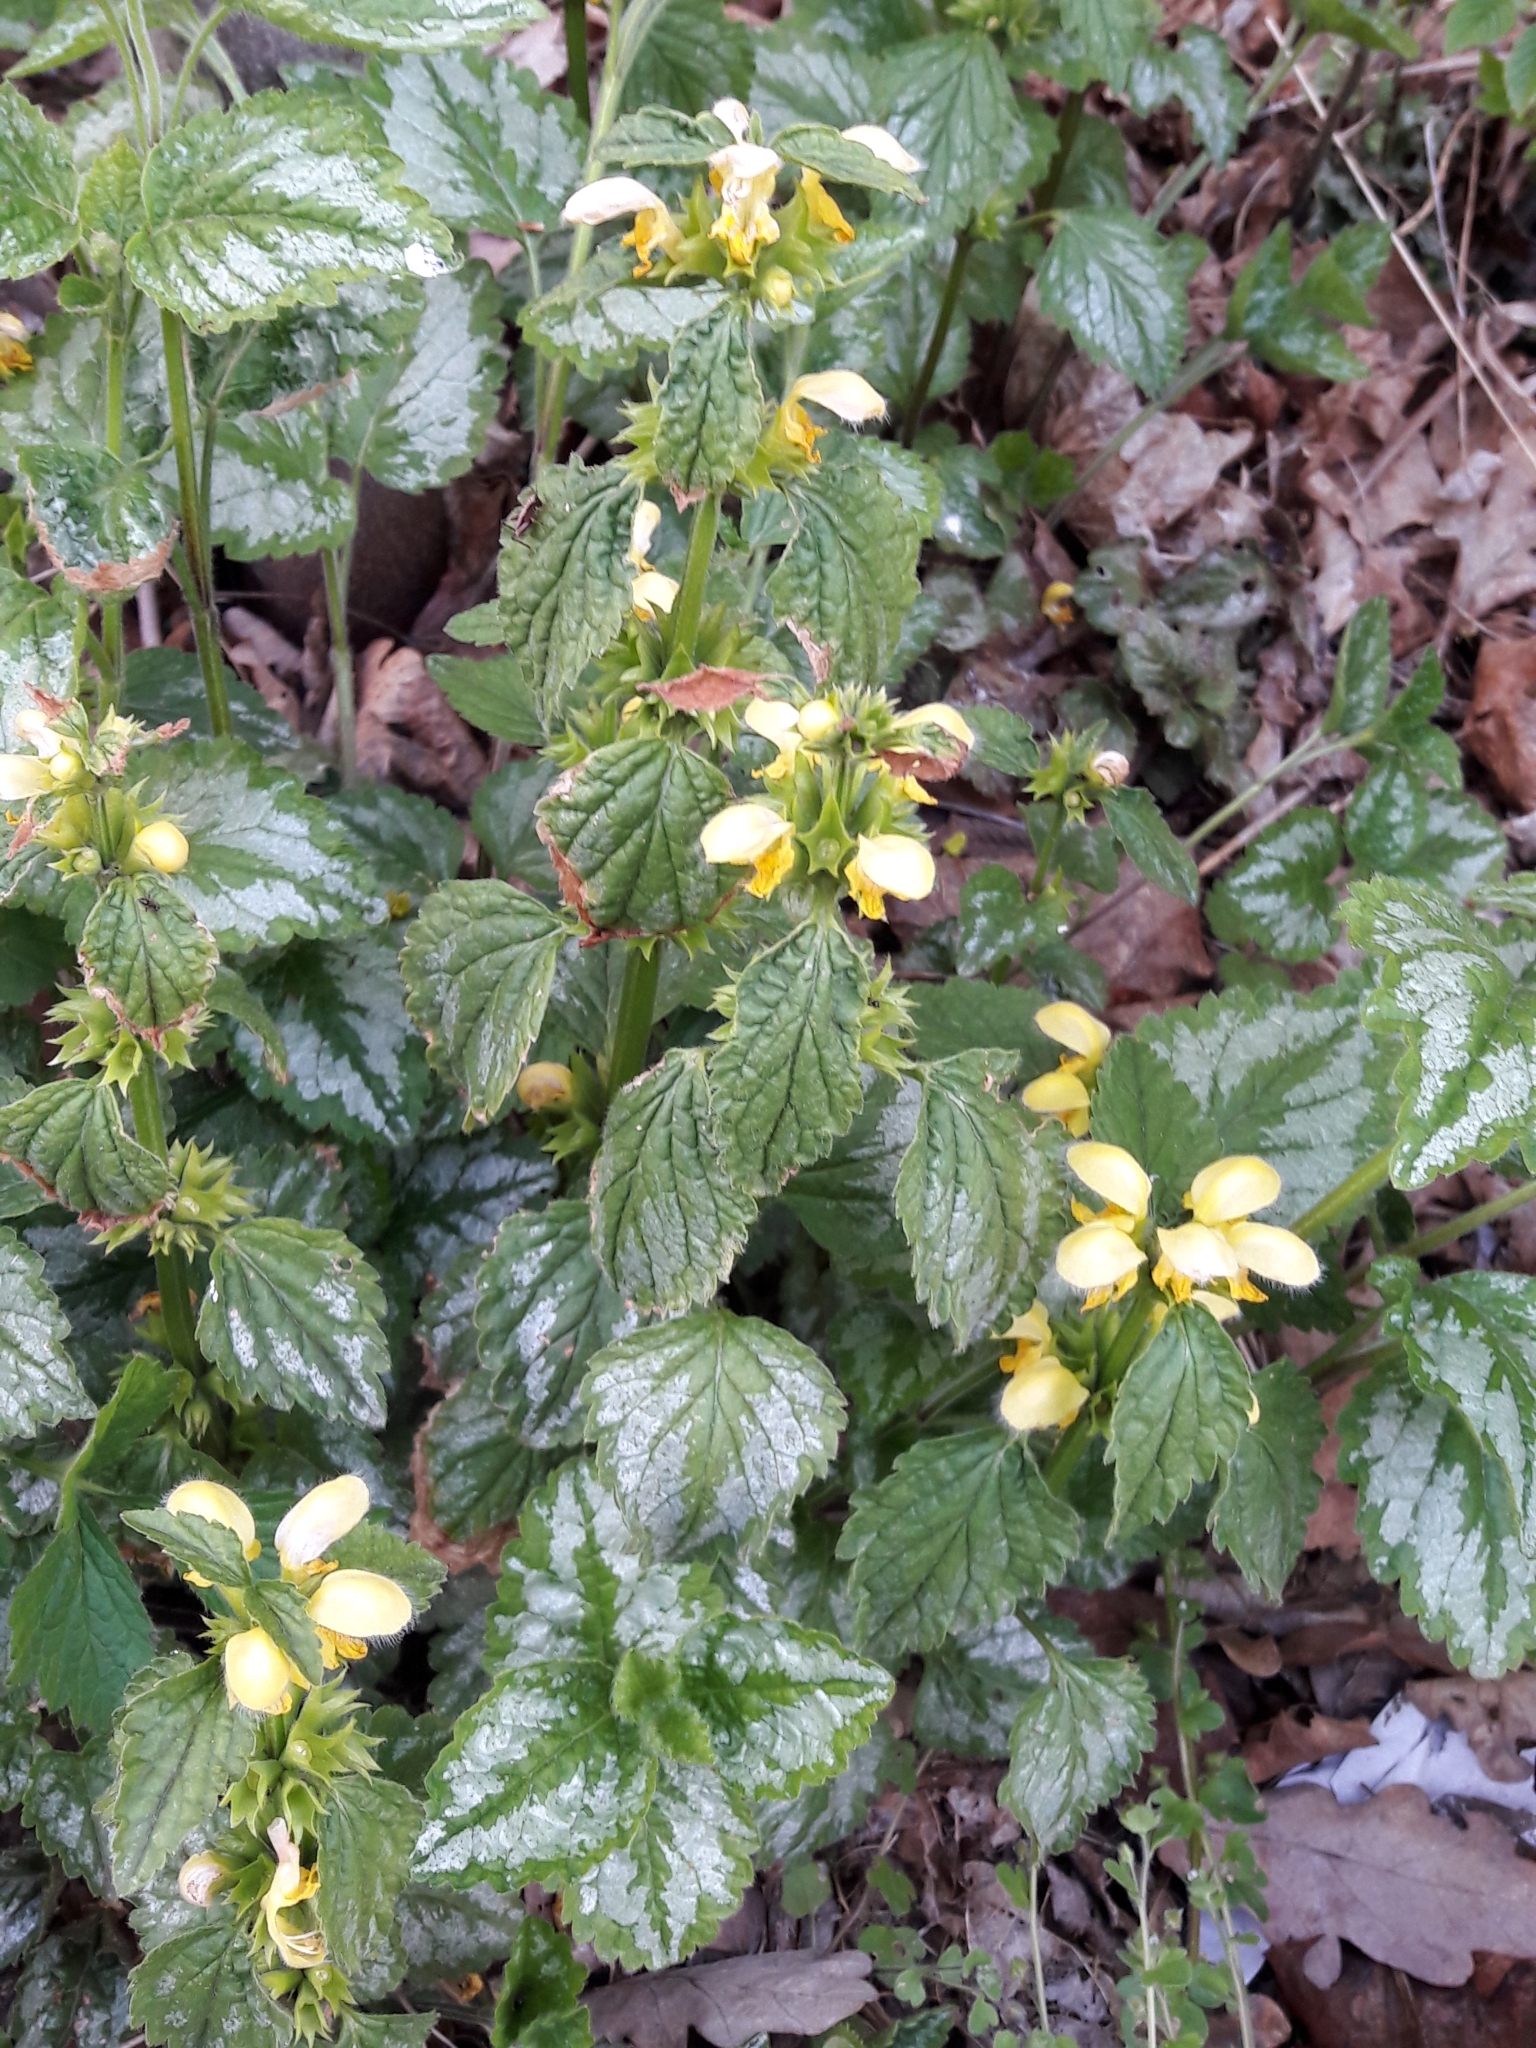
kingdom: Plantae
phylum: Tracheophyta
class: Magnoliopsida
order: Lamiales
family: Lamiaceae
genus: Lamium
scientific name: Lamium galeobdolon
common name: Yellow archangel
